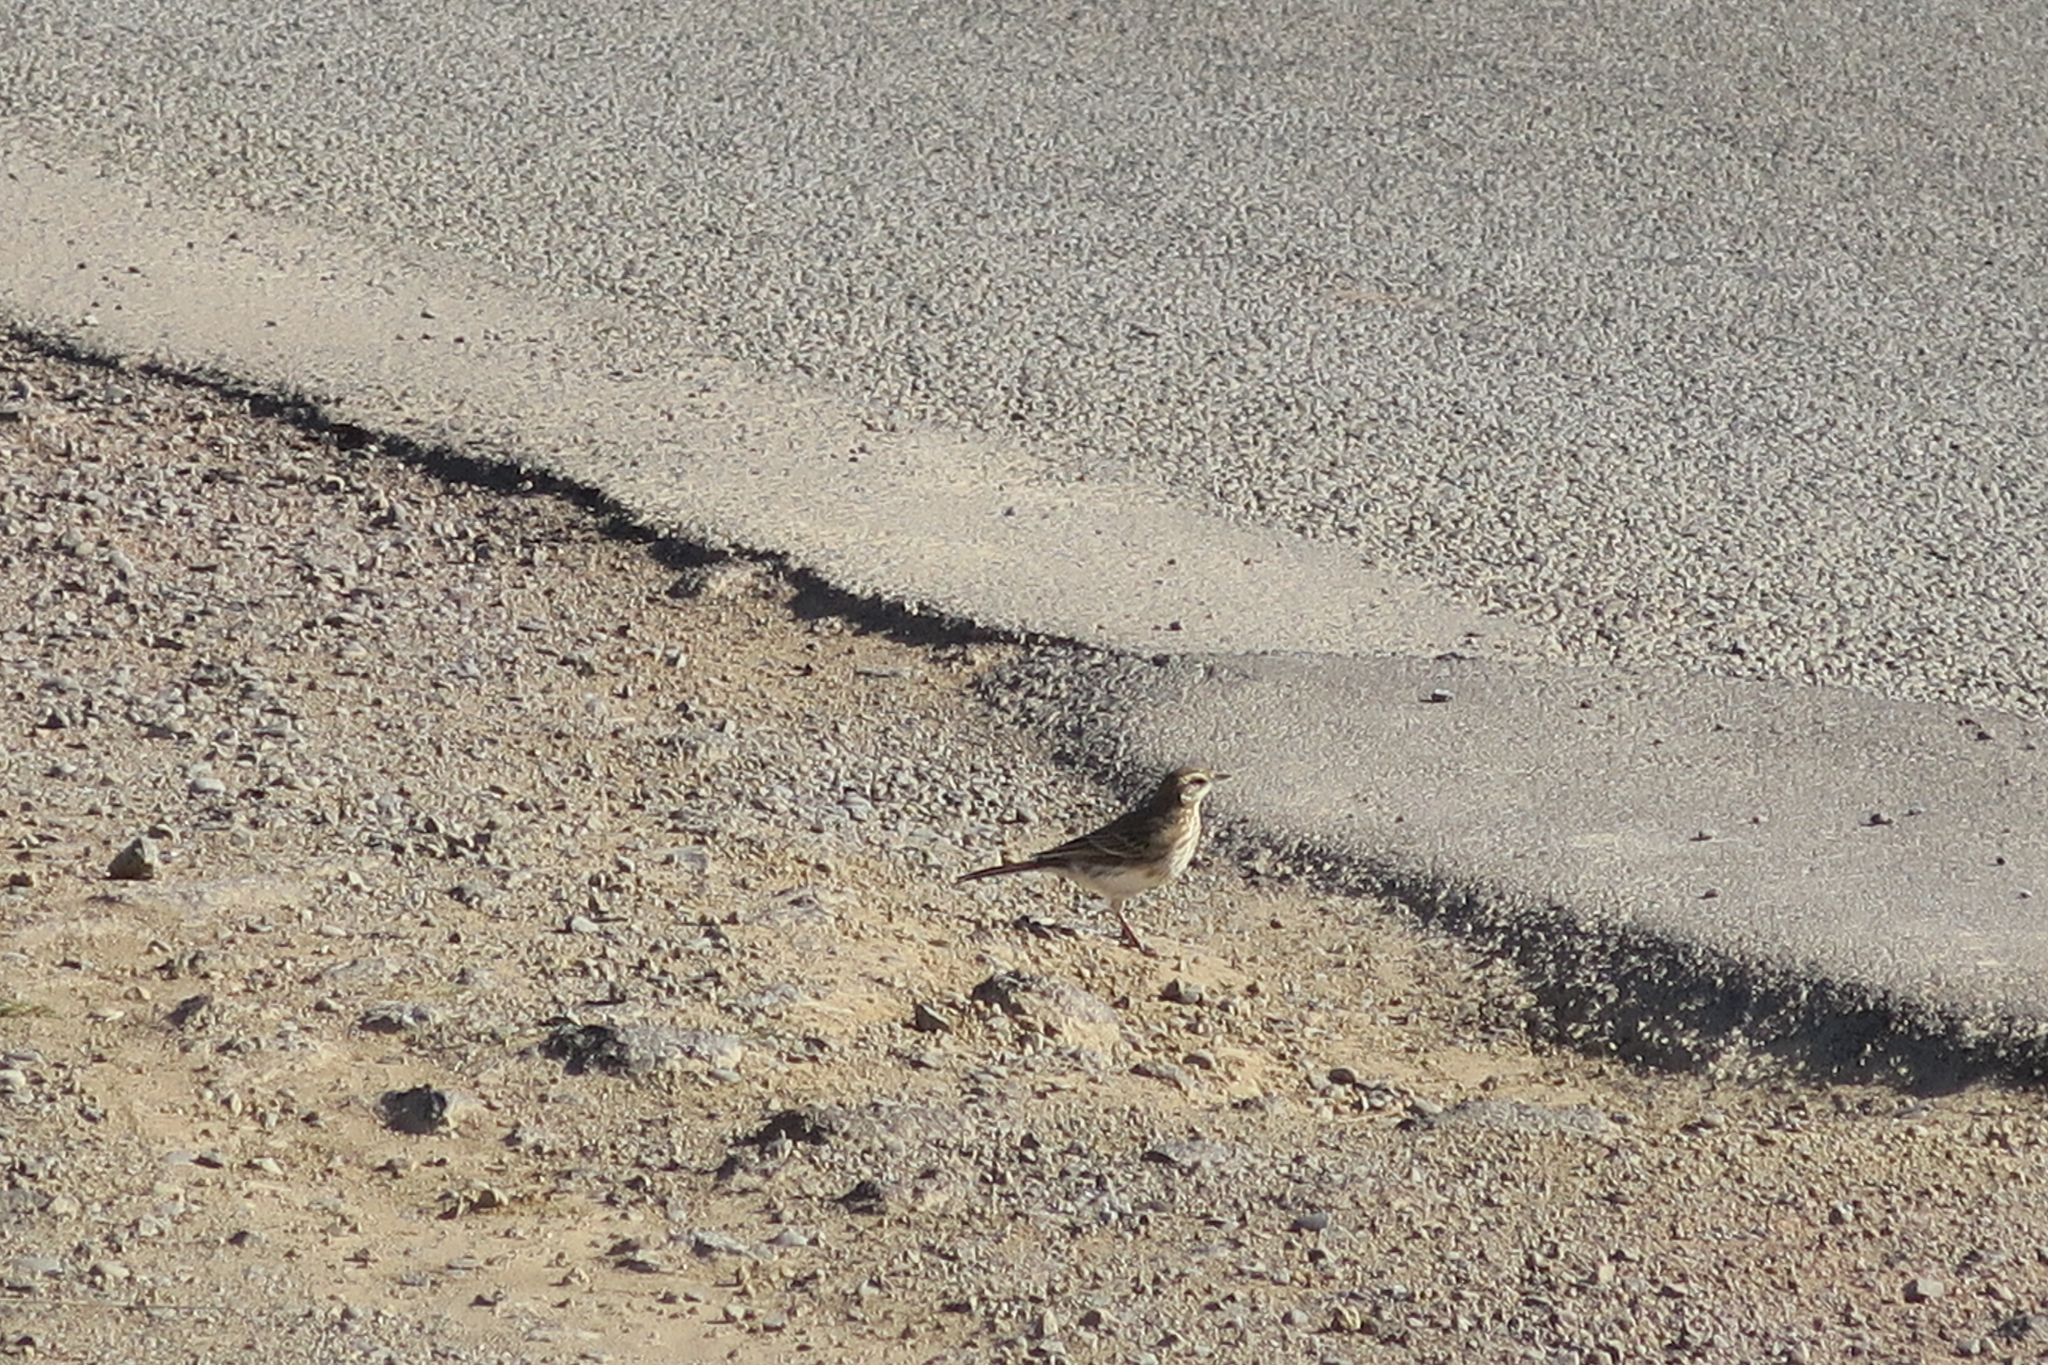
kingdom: Animalia
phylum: Chordata
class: Aves
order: Passeriformes
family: Motacillidae
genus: Anthus
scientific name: Anthus novaeseelandiae
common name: New zealand pipit
